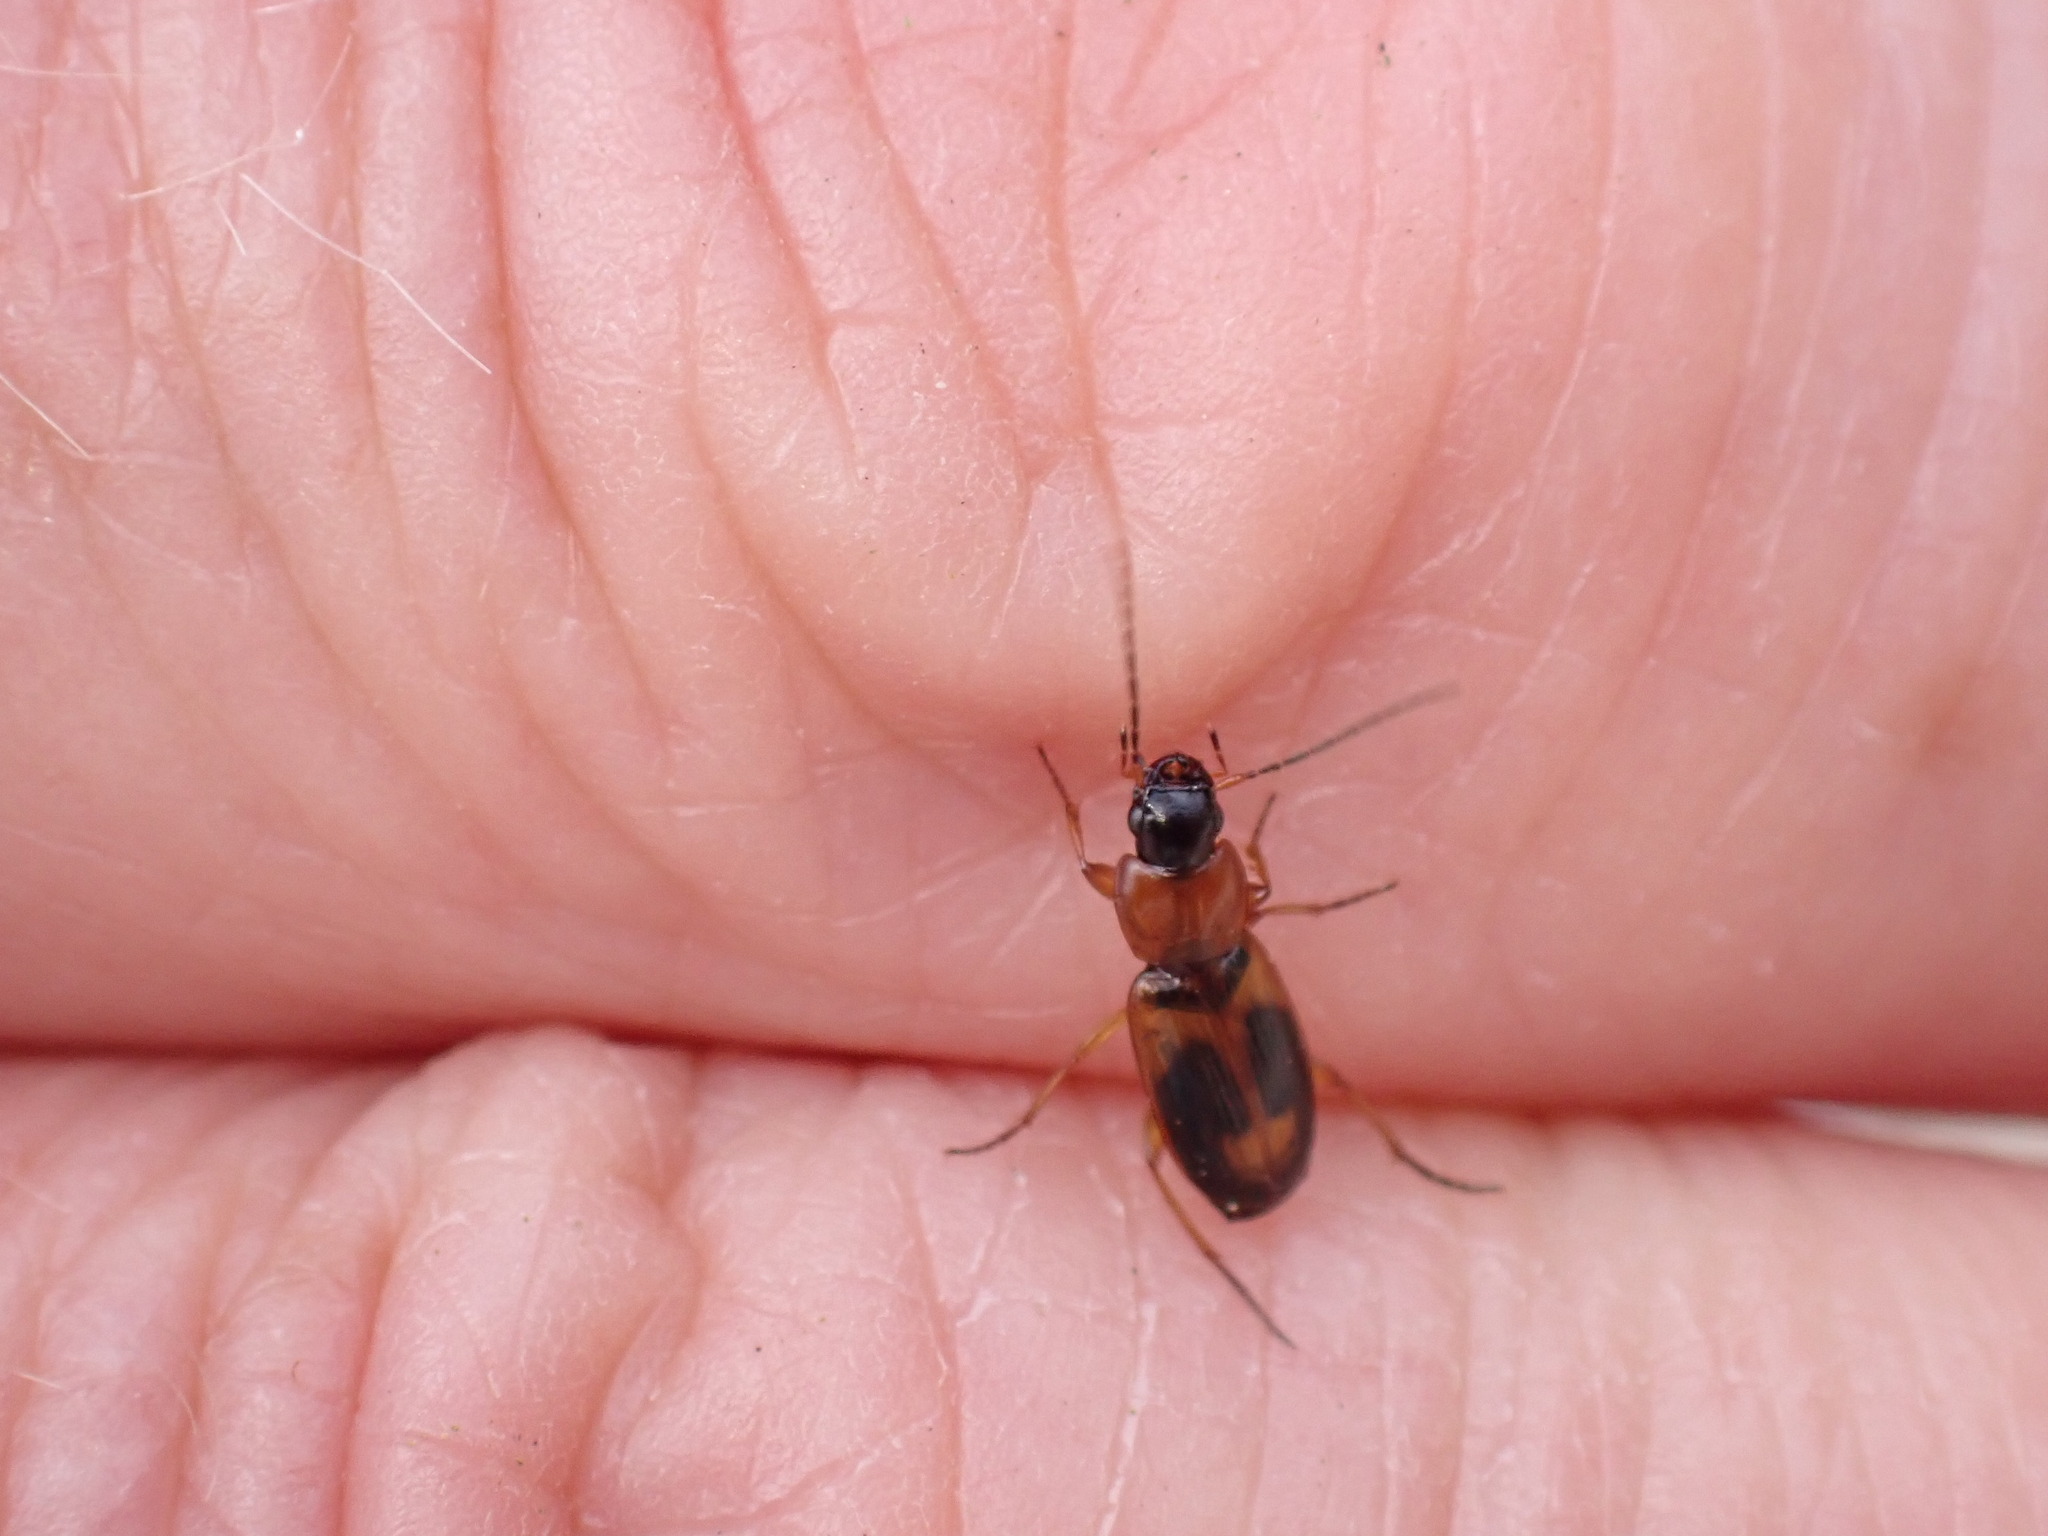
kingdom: Animalia
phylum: Arthropoda
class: Insecta
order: Coleoptera
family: Carabidae
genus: Badister
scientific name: Badister bullatus
